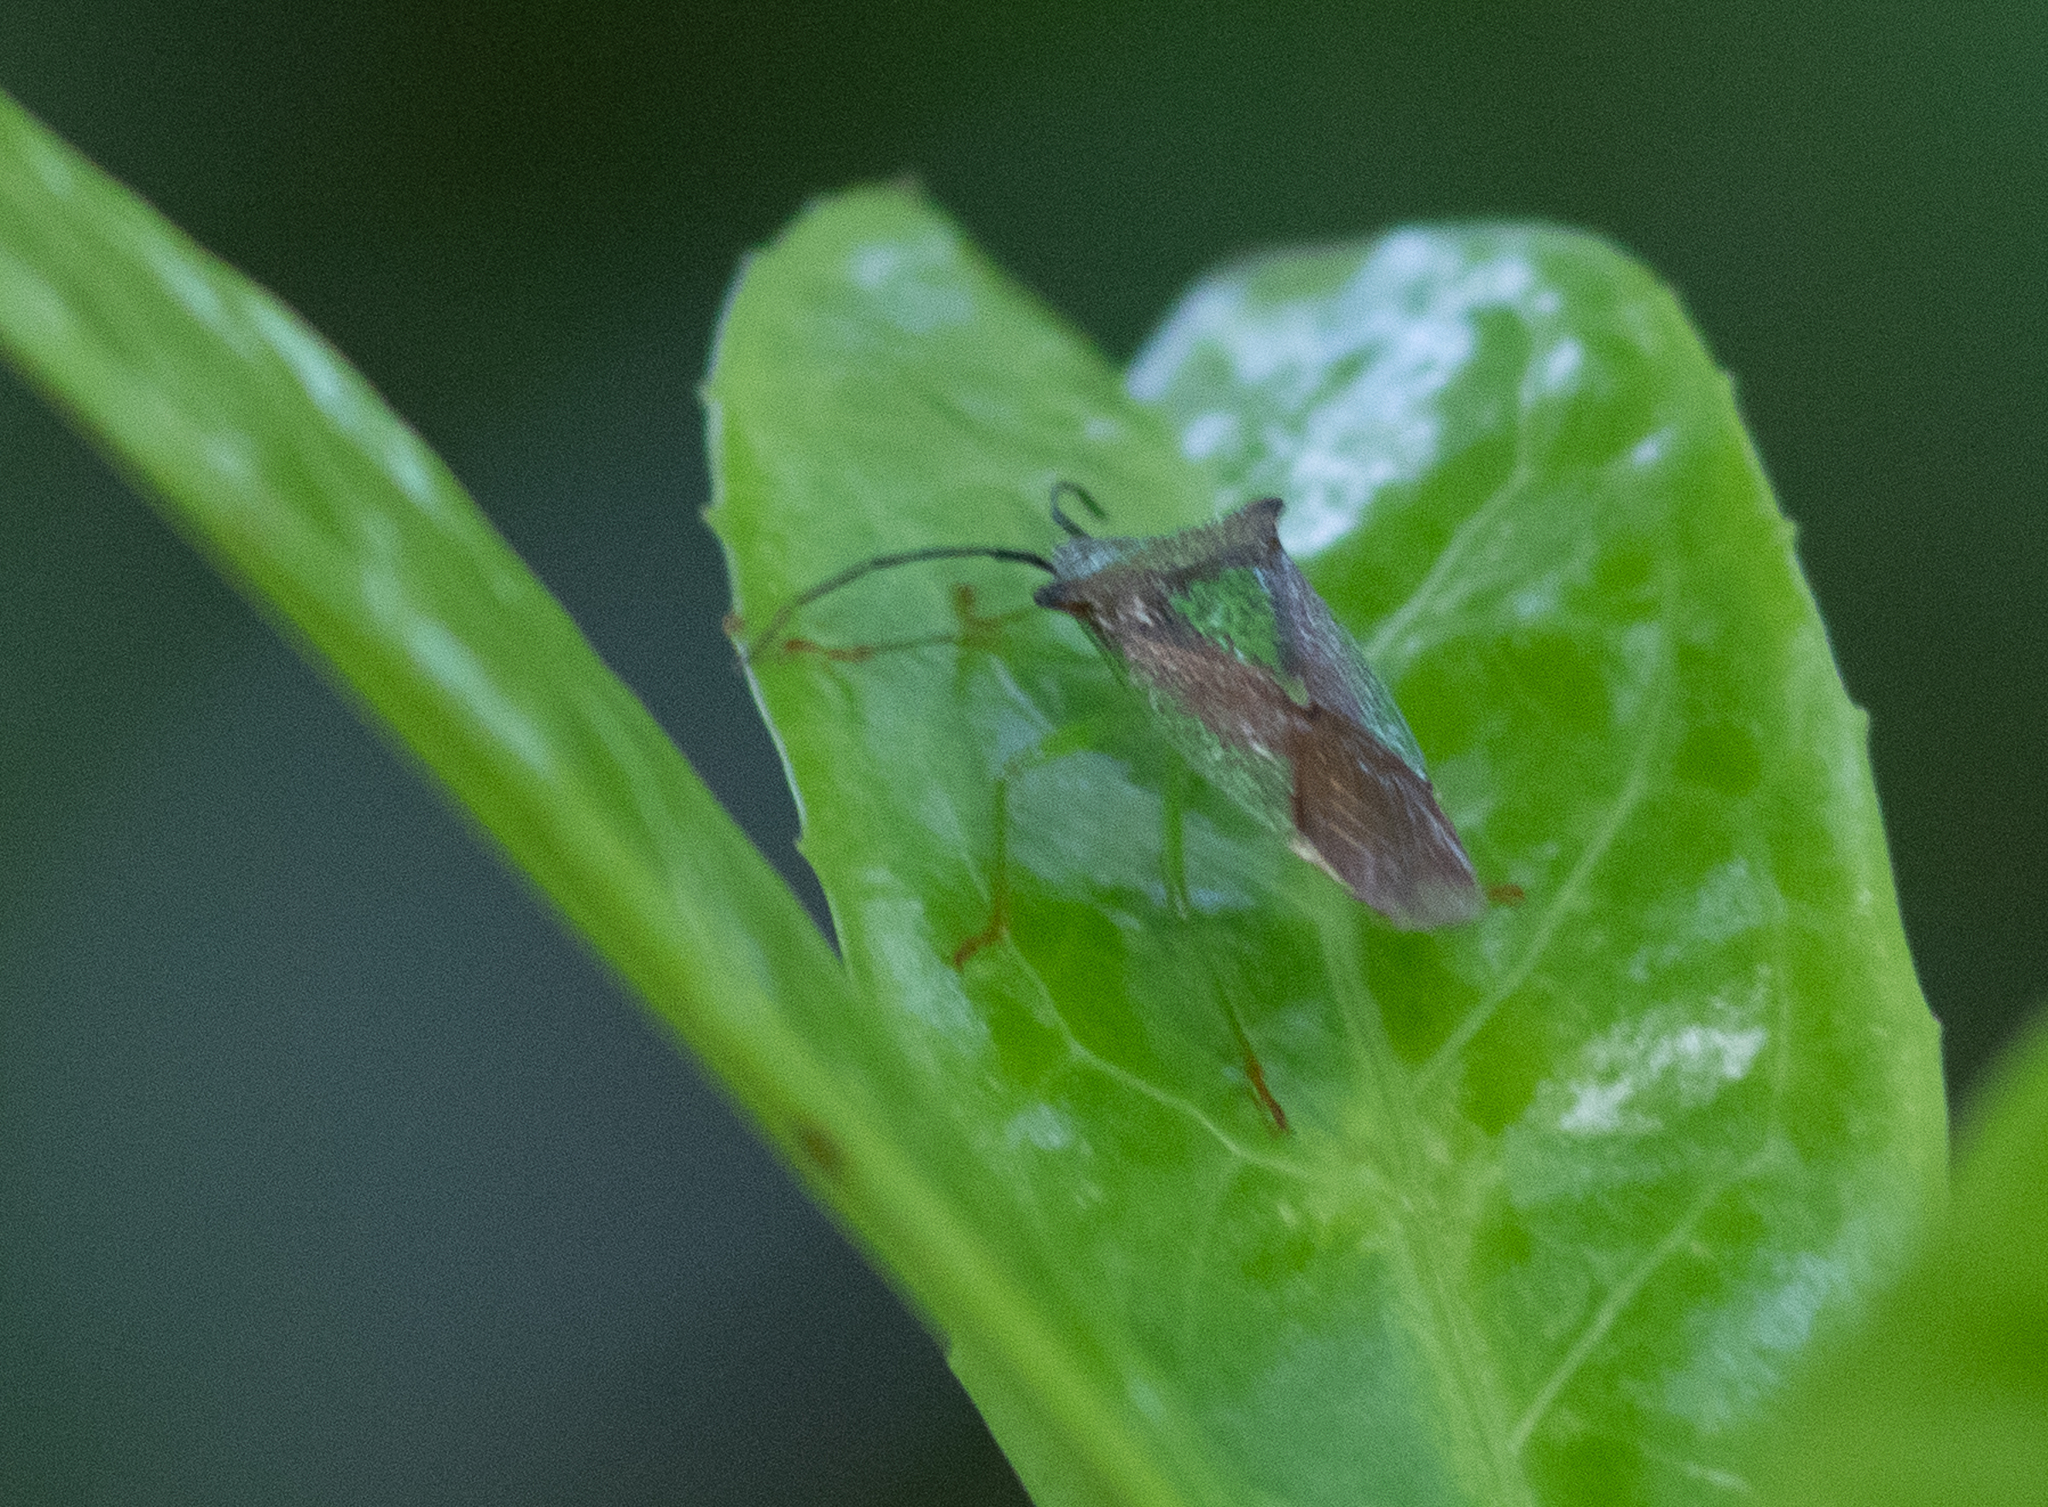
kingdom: Animalia
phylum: Arthropoda
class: Insecta
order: Hemiptera
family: Acanthosomatidae
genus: Acanthosoma
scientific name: Acanthosoma haemorrhoidale
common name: Hawthorn shieldbug
